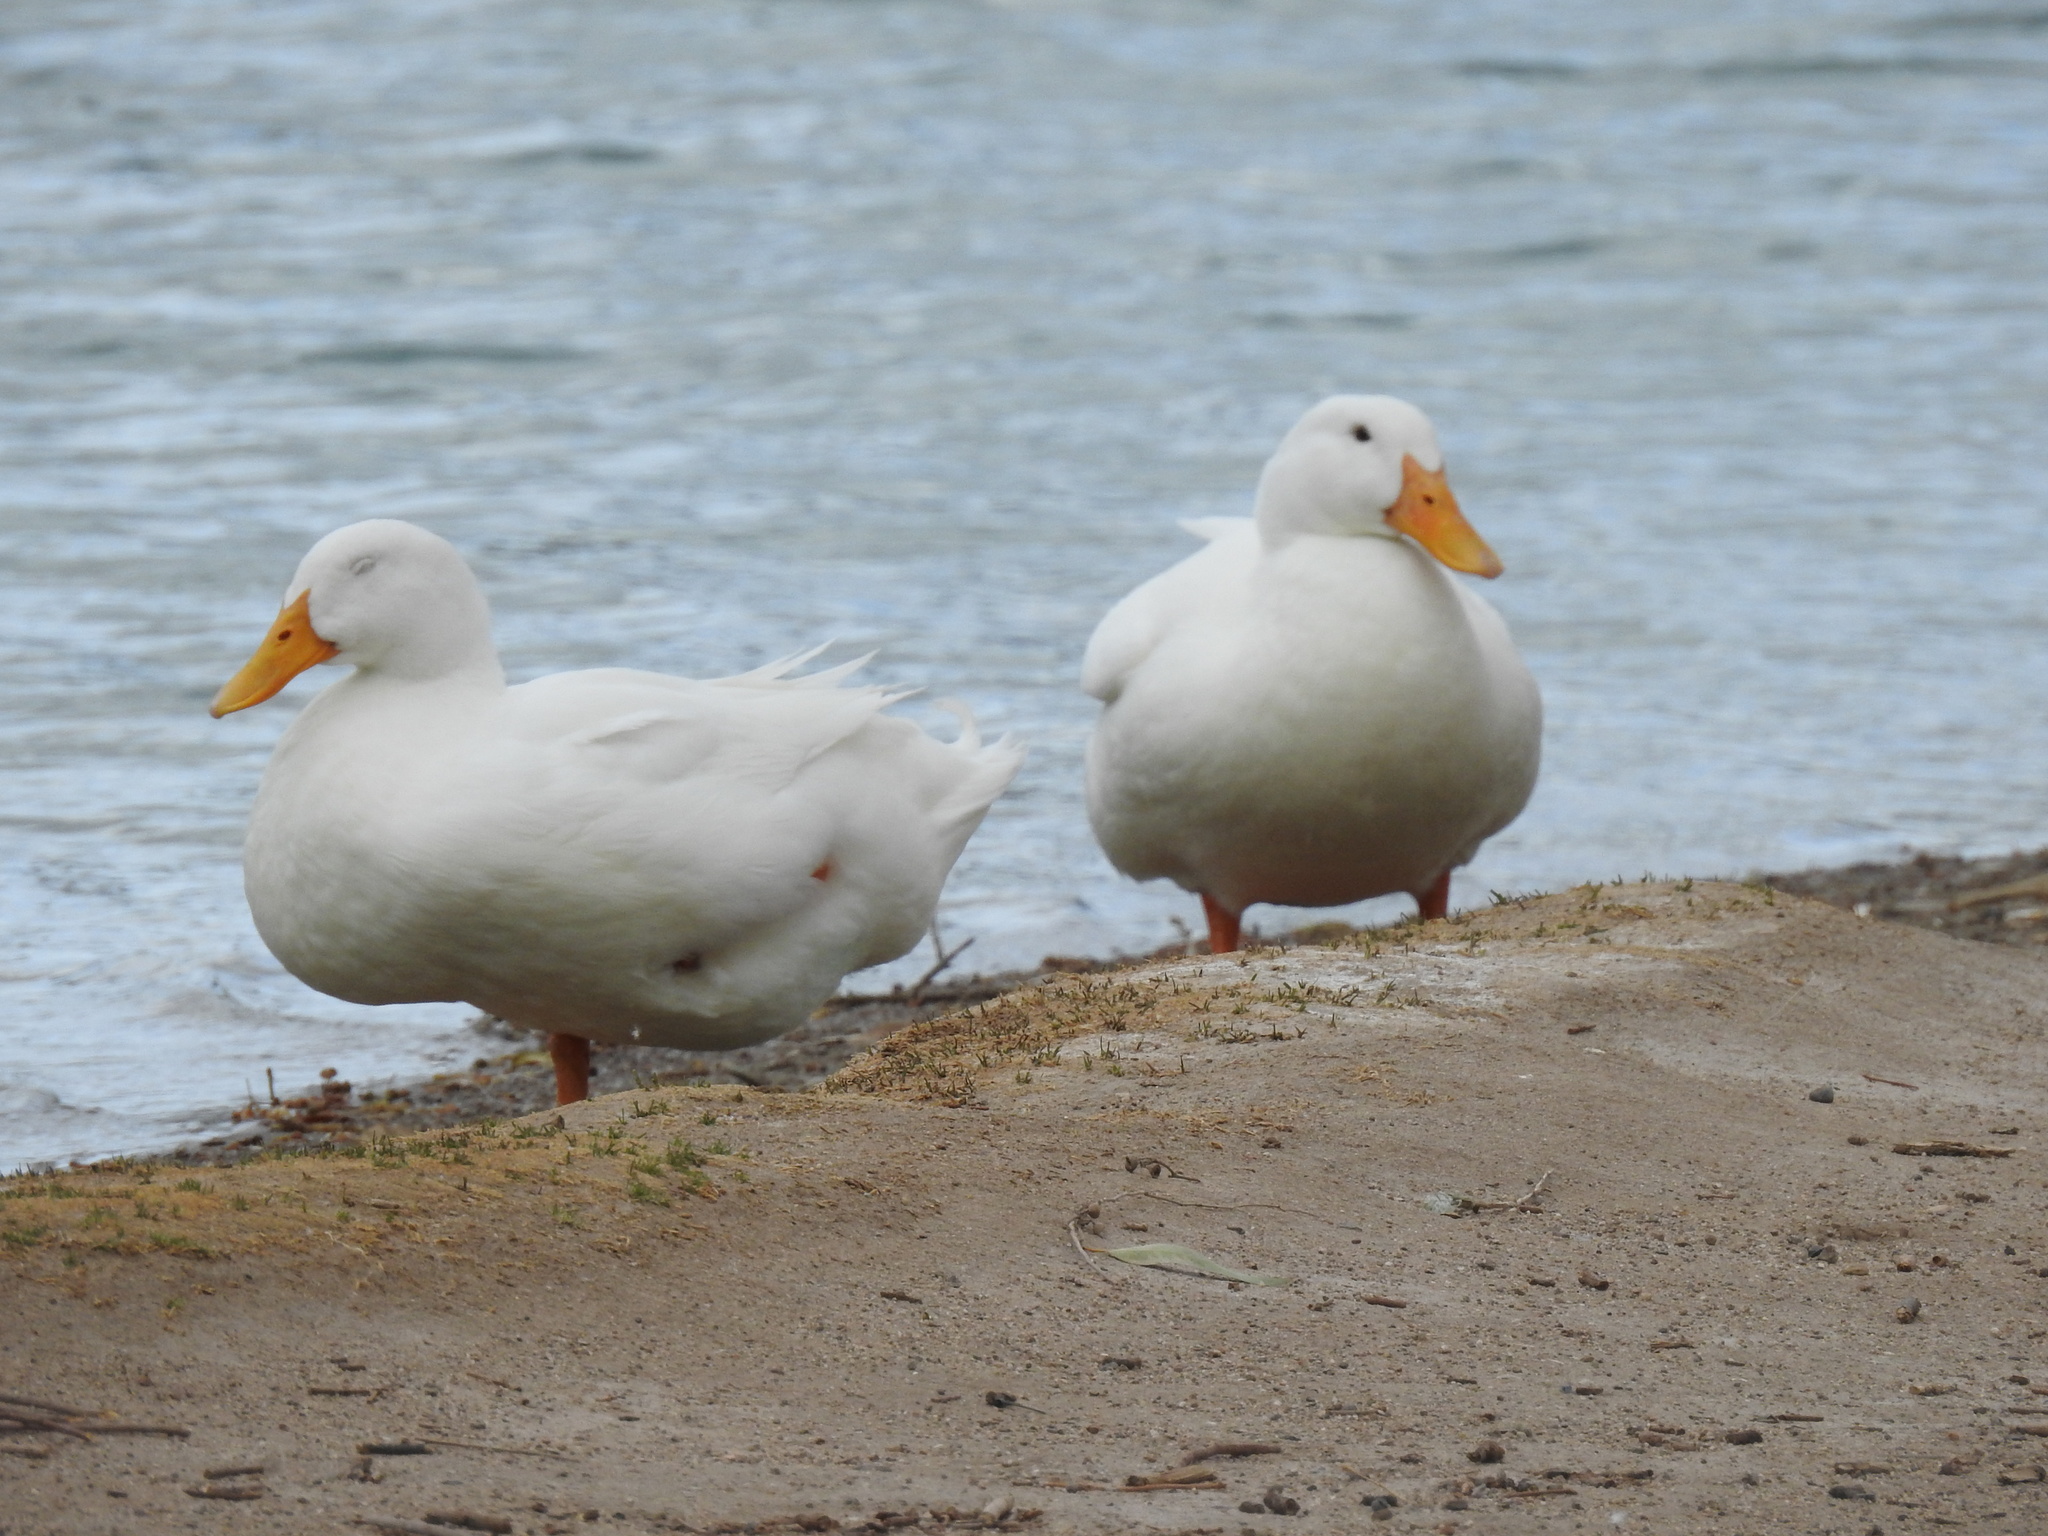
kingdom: Animalia
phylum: Chordata
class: Aves
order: Anseriformes
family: Anatidae
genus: Anas
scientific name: Anas platyrhynchos
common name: Mallard
